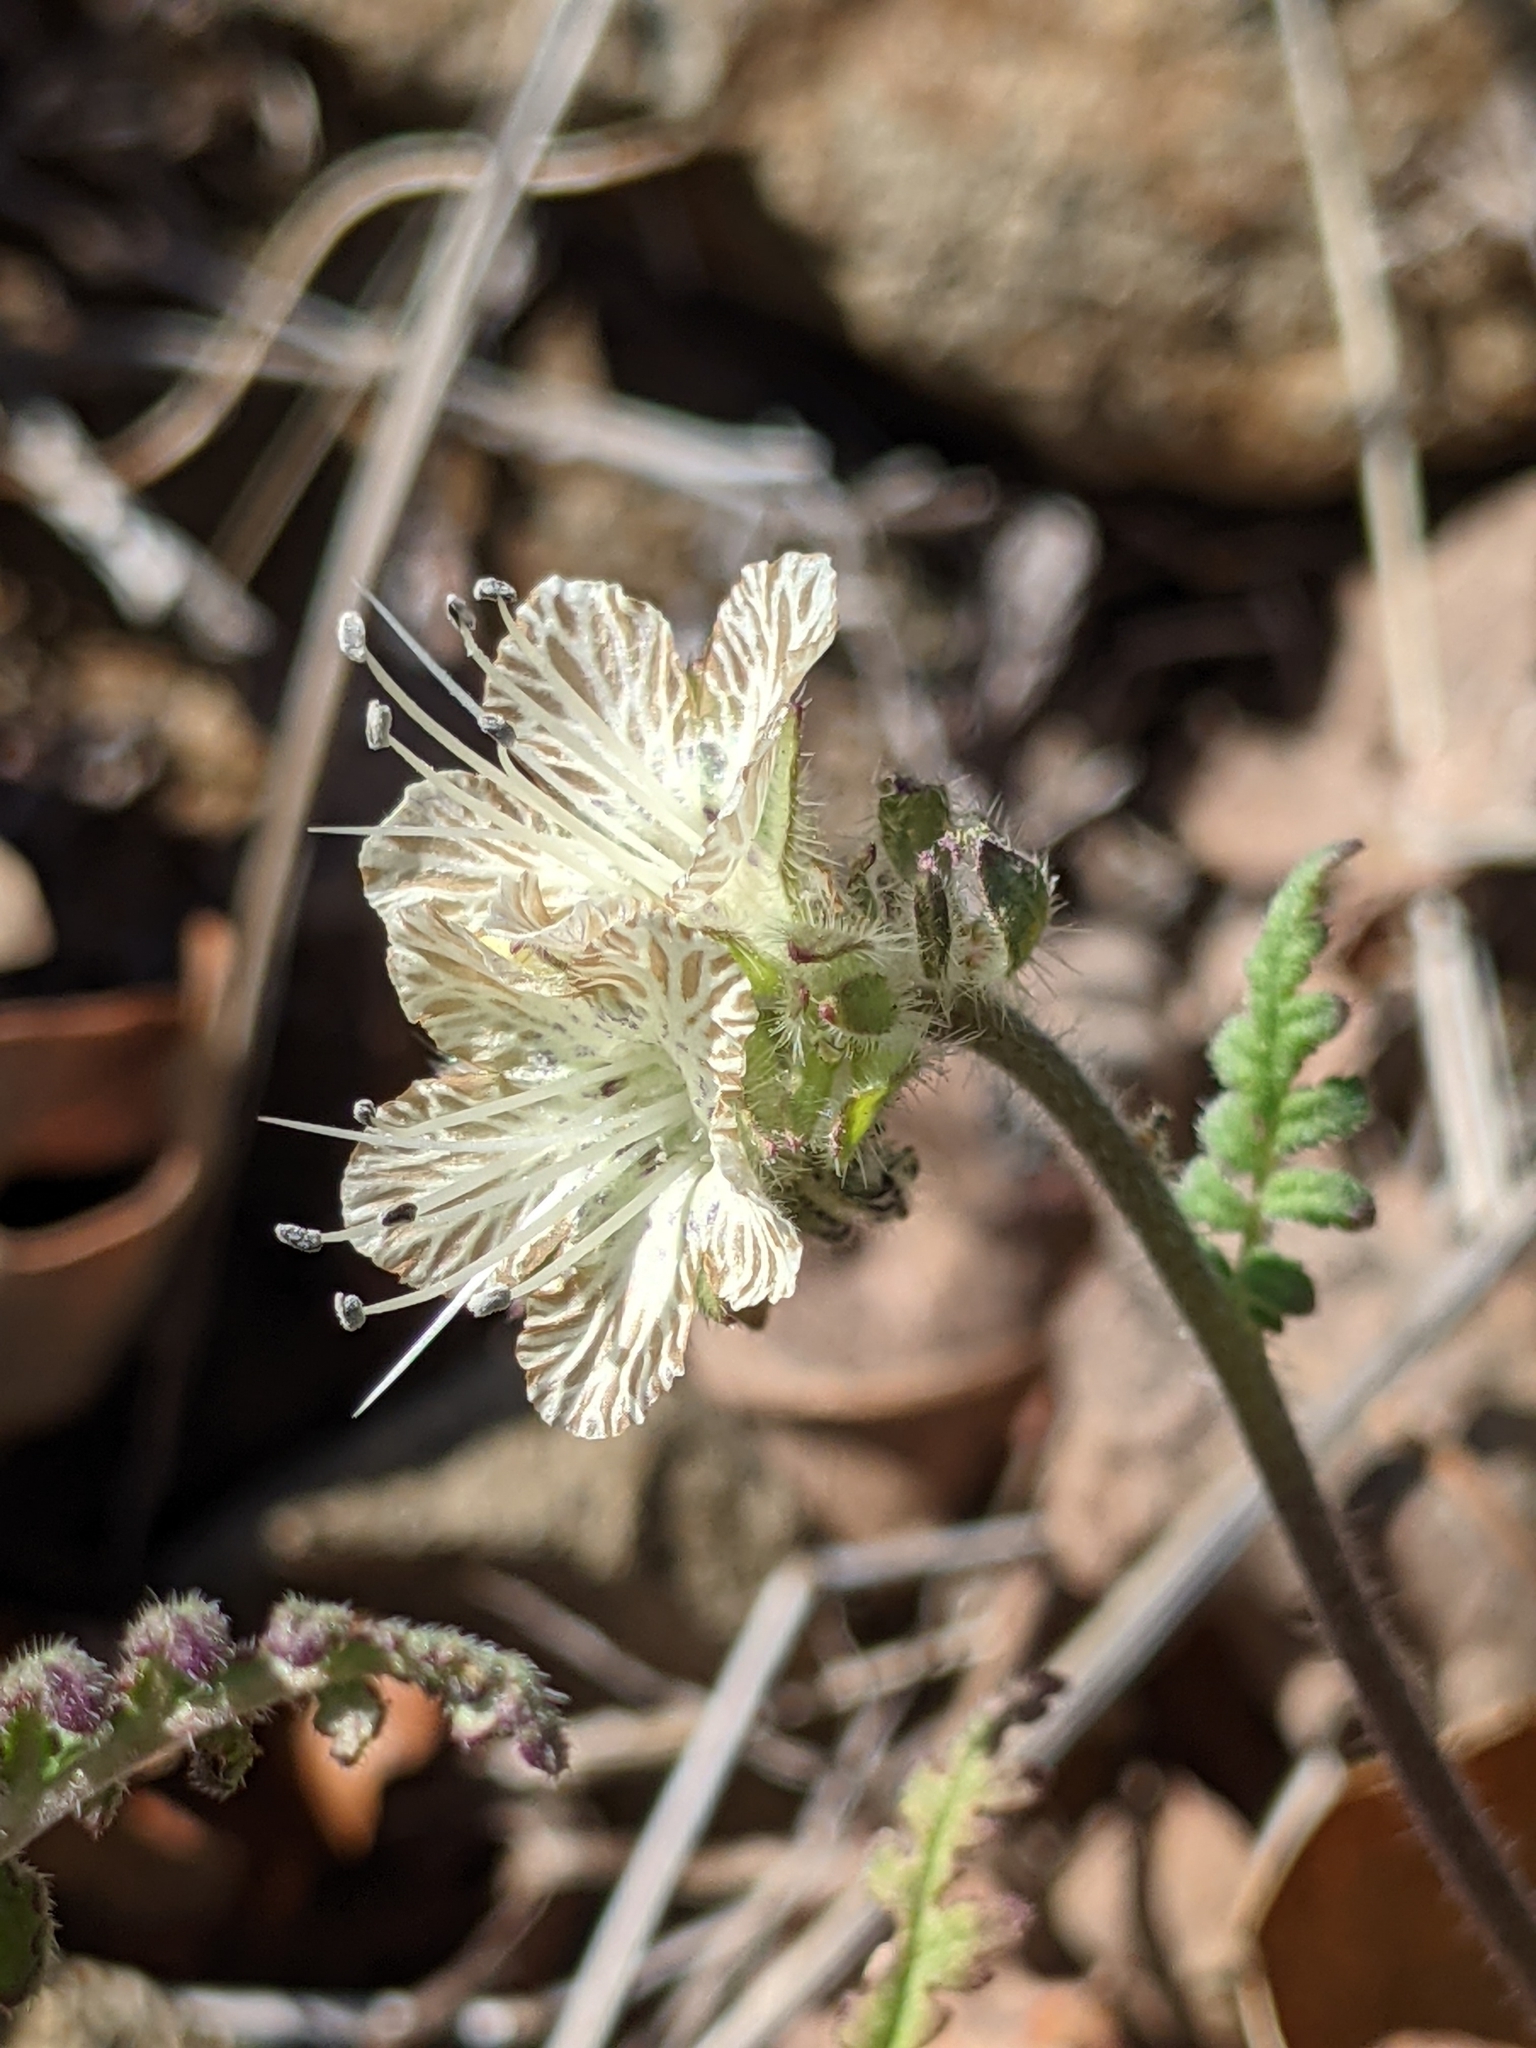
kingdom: Plantae
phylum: Tracheophyta
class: Magnoliopsida
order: Boraginales
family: Hydrophyllaceae
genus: Phacelia
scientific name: Phacelia distans
